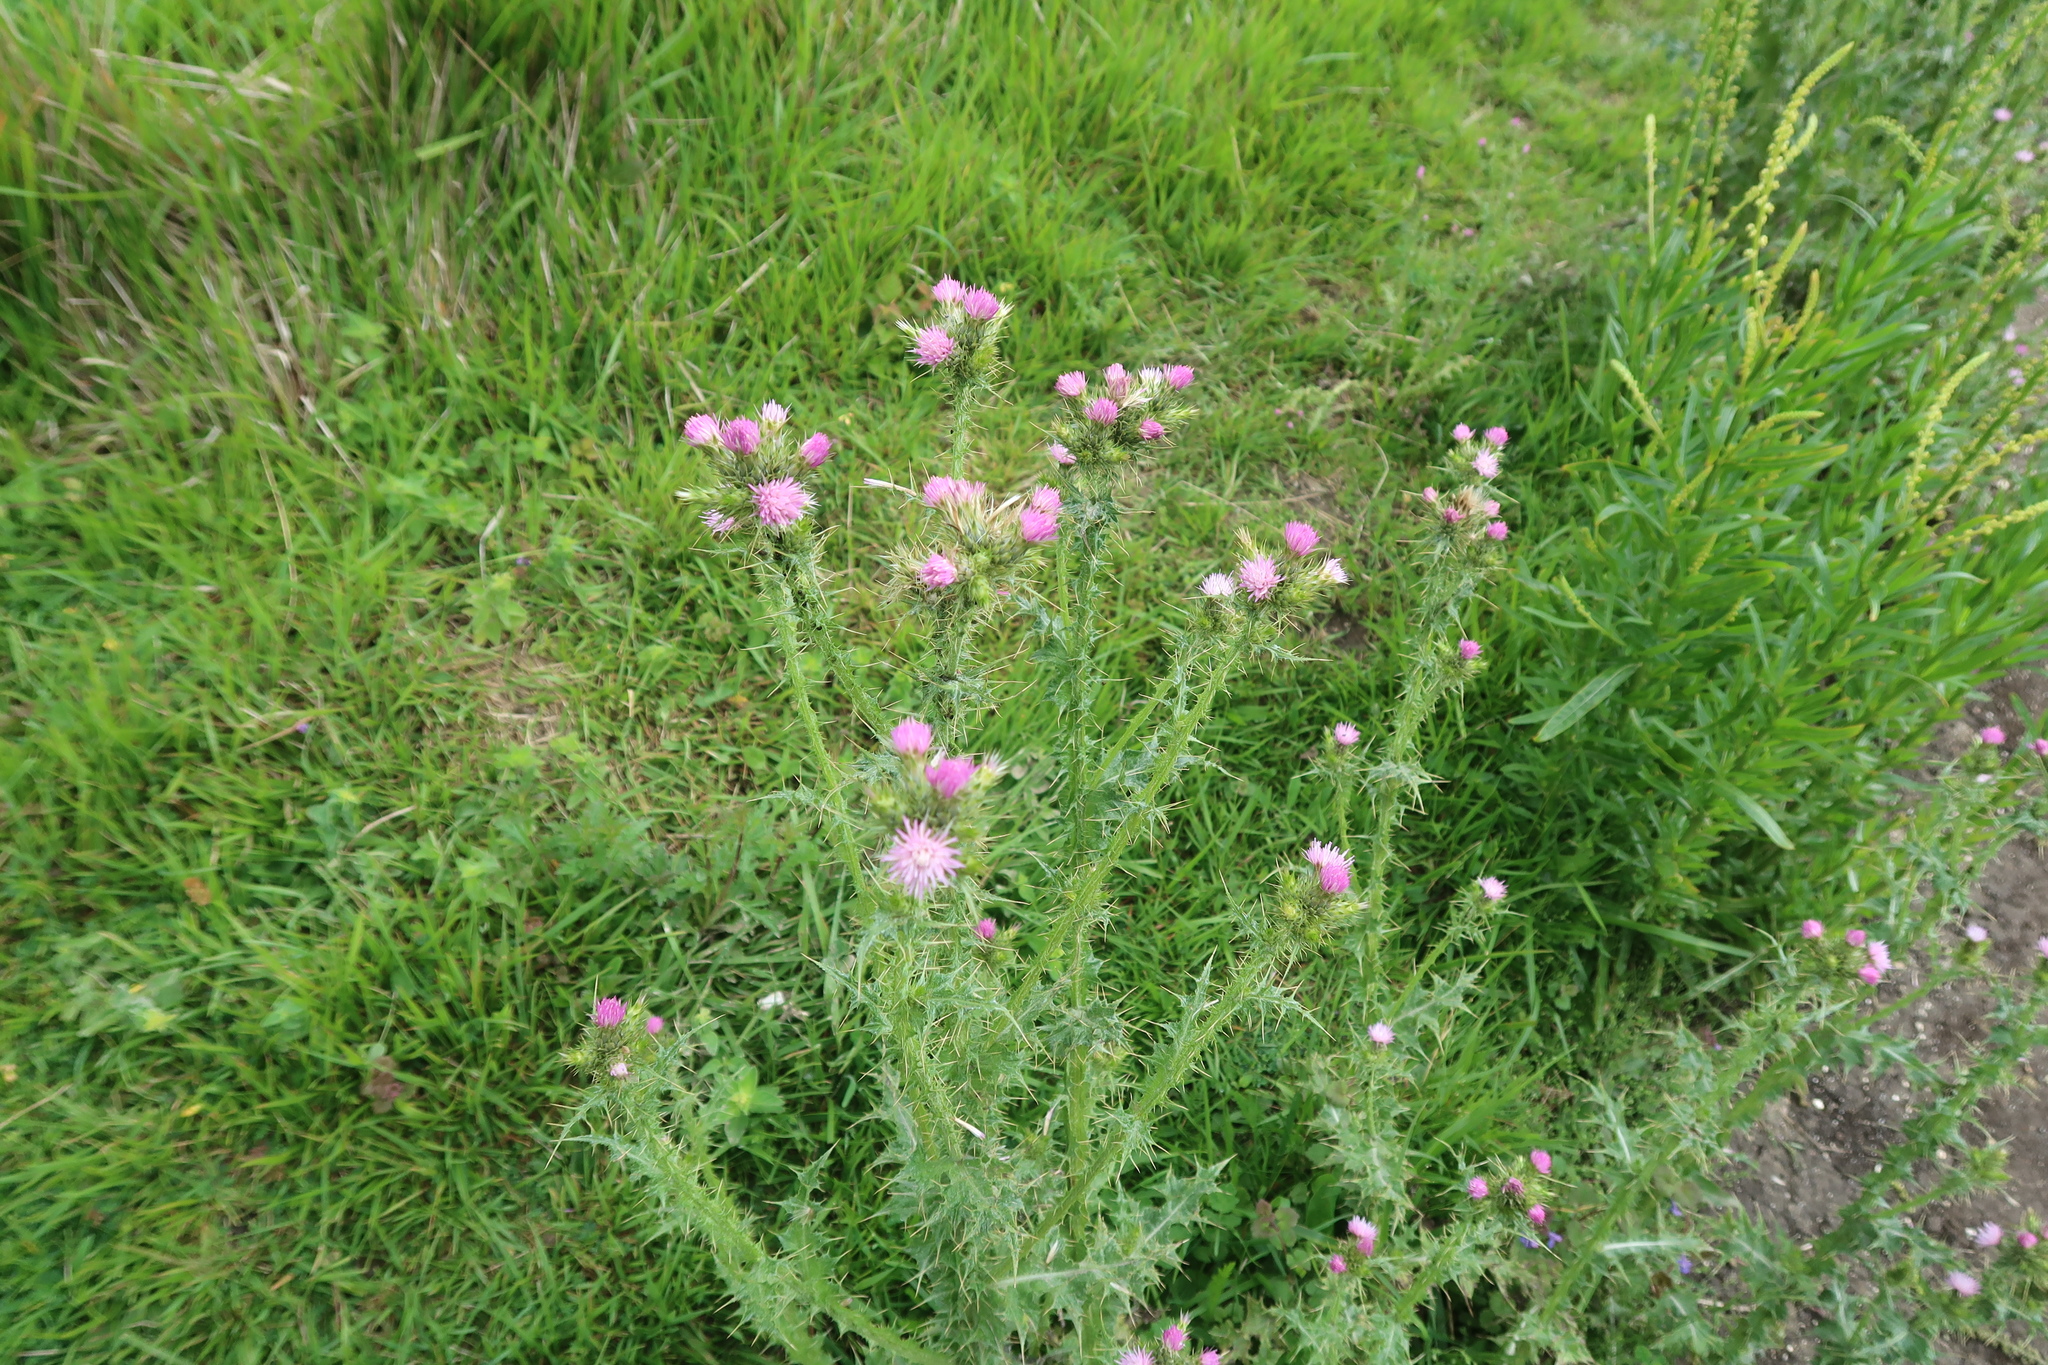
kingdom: Plantae
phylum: Tracheophyta
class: Magnoliopsida
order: Asterales
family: Asteraceae
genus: Carduus
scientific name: Carduus tenuiflorus
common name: Slender thistle
